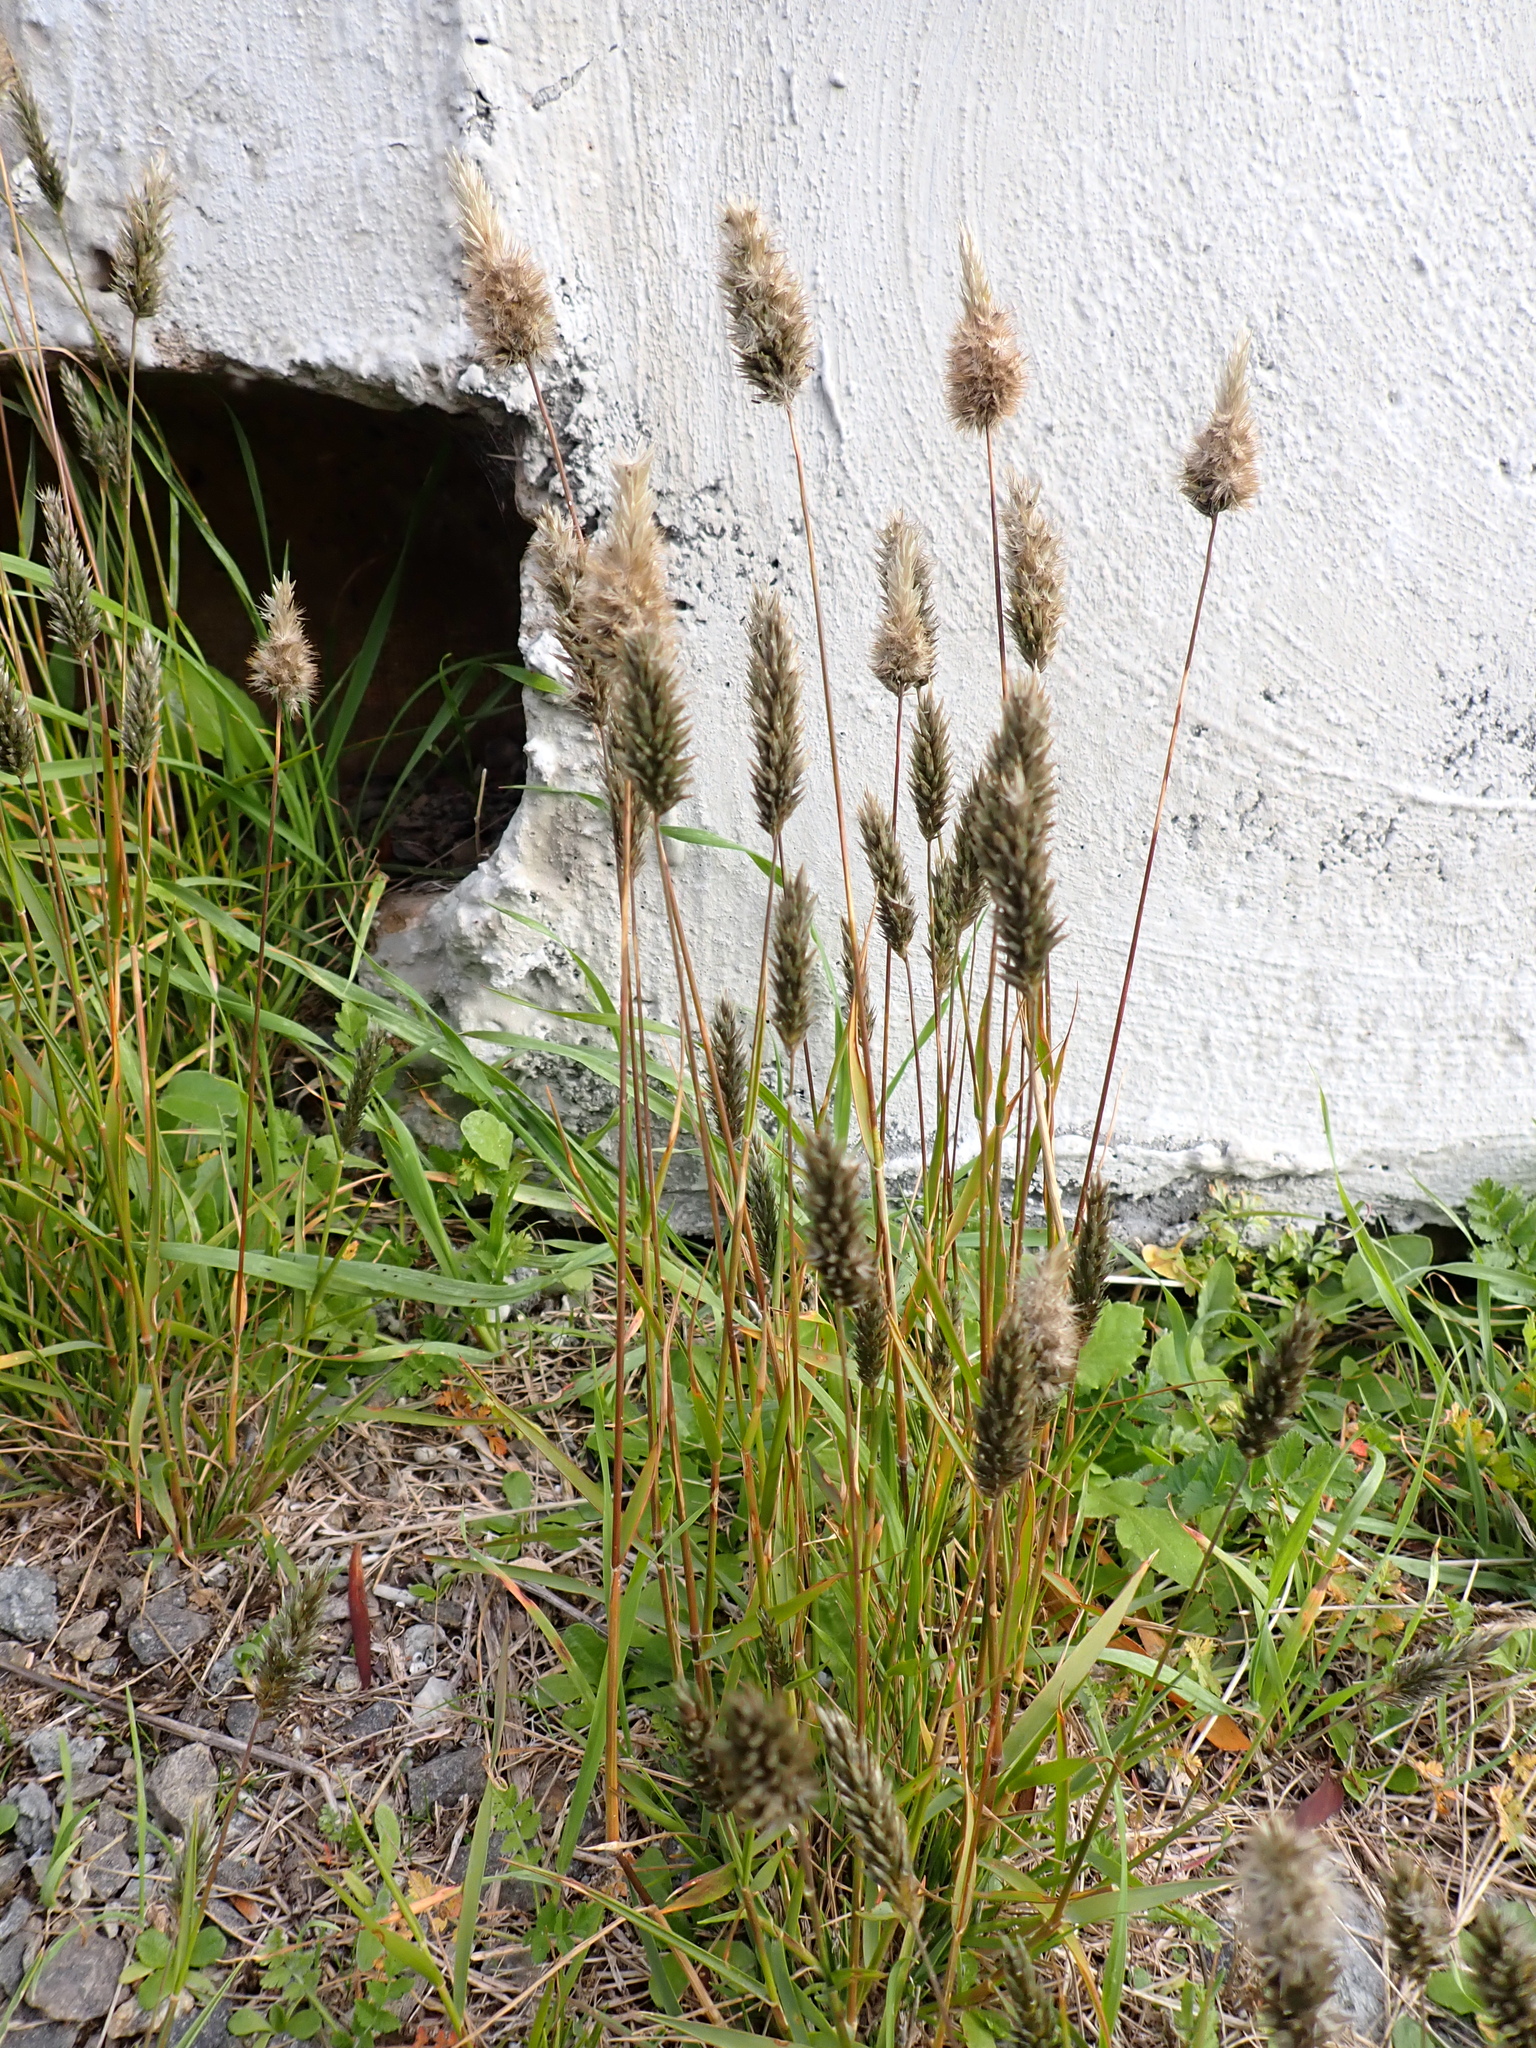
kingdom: Plantae
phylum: Tracheophyta
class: Liliopsida
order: Poales
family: Poaceae
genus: Enneapogon
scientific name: Enneapogon nigricans
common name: Pappus grass
